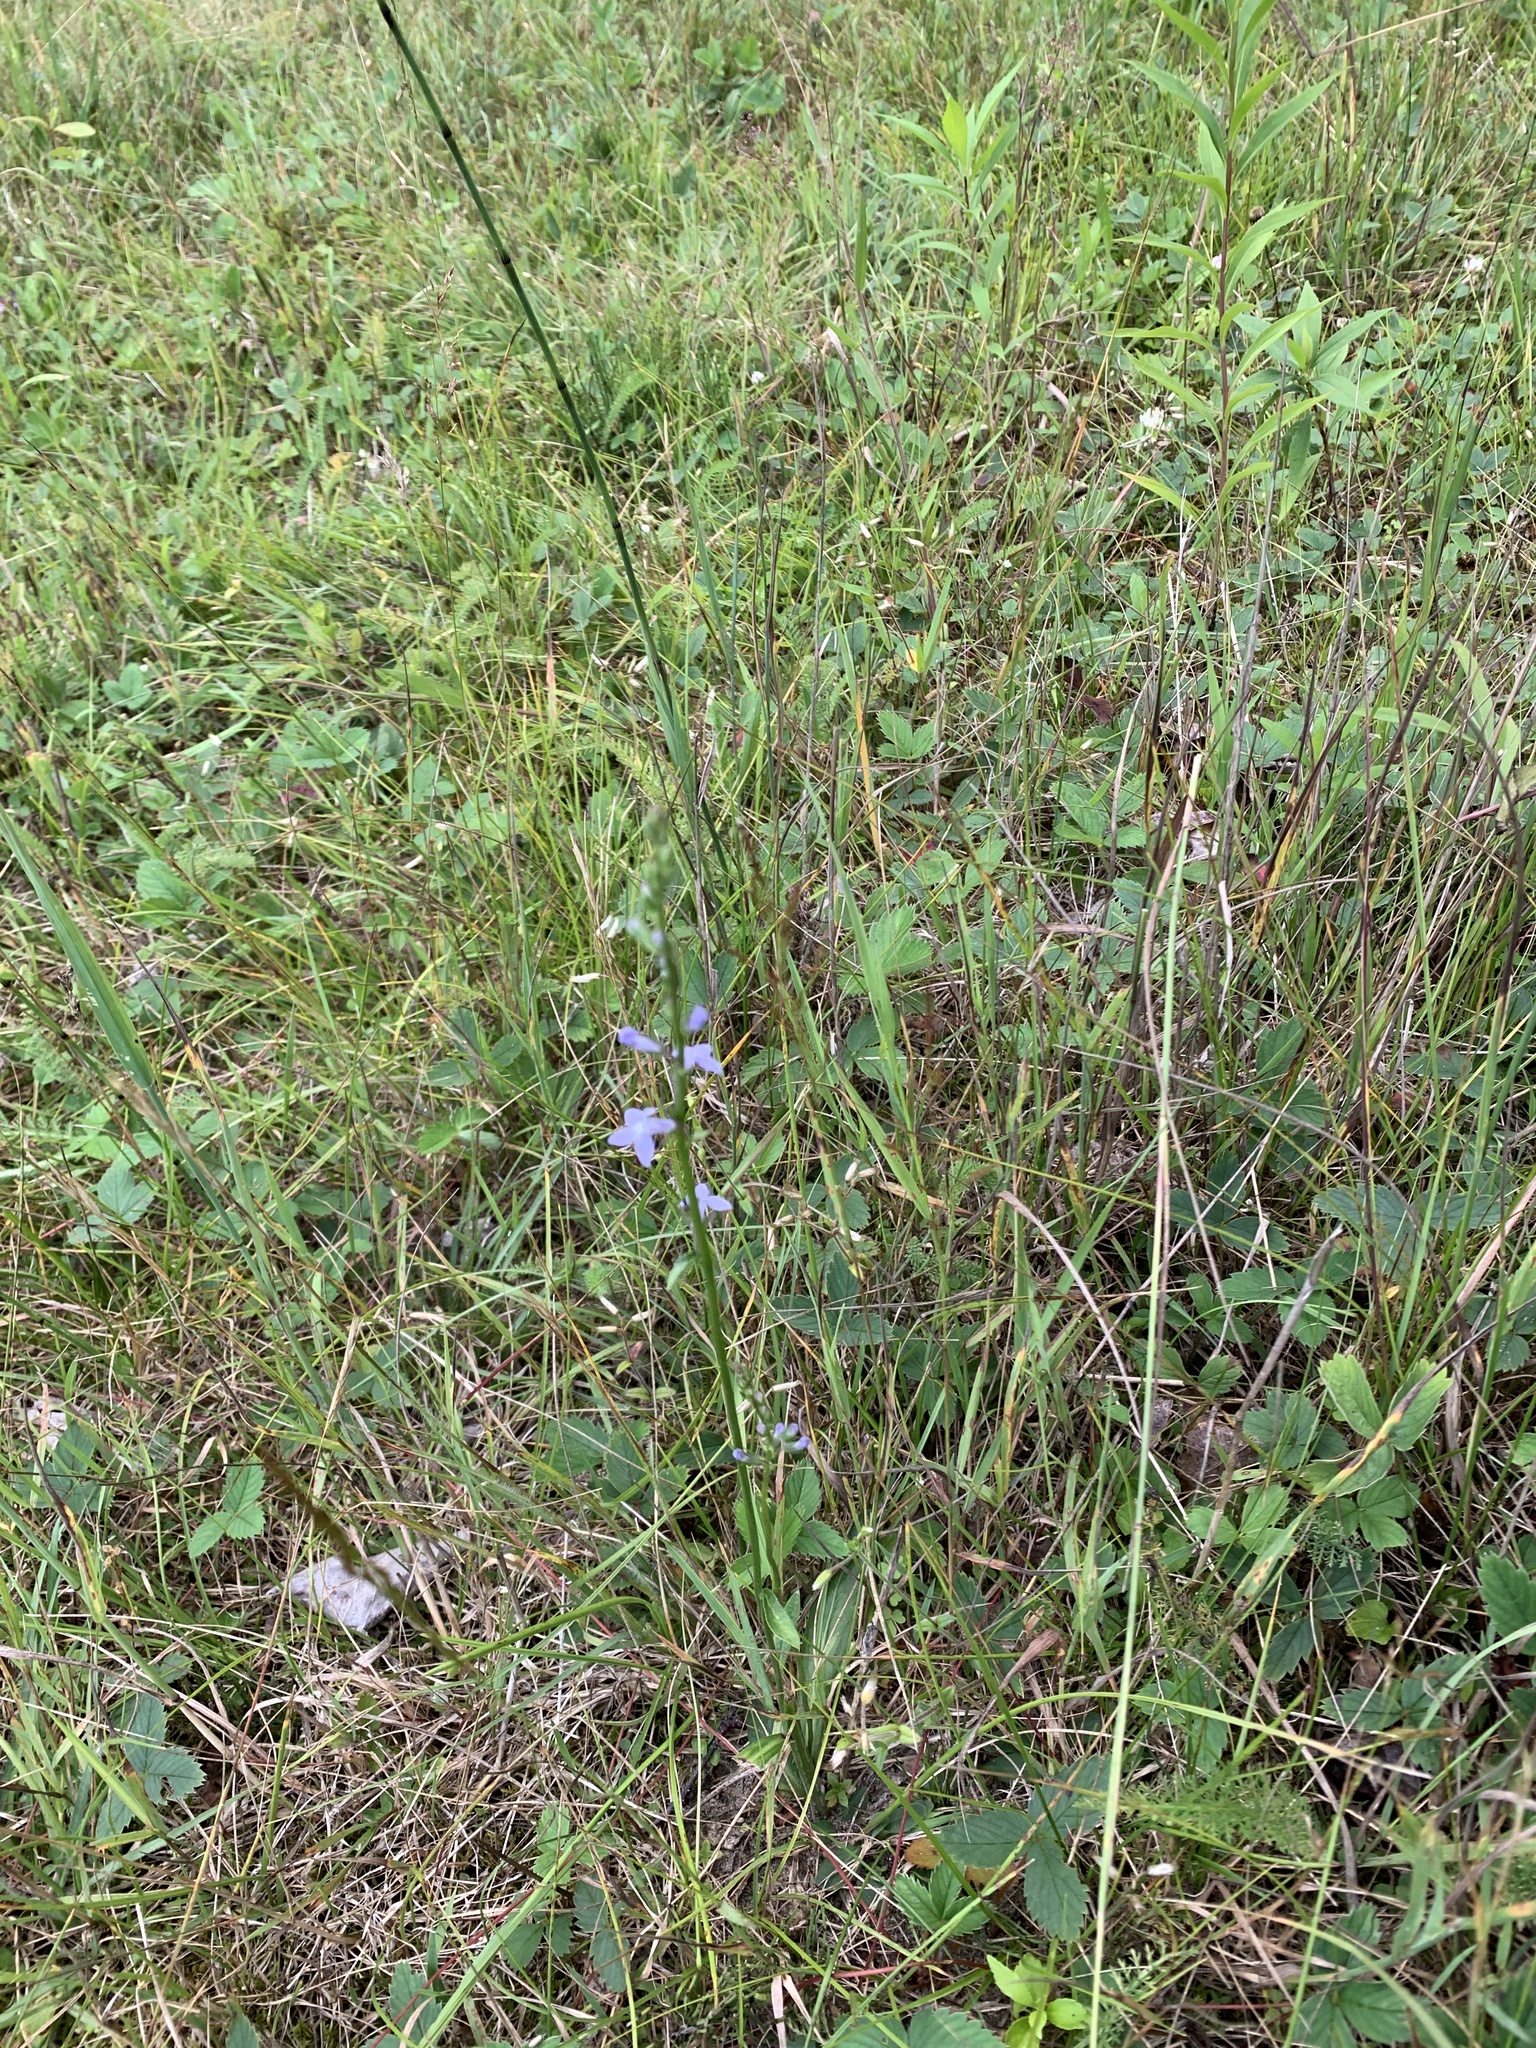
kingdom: Plantae
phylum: Tracheophyta
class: Magnoliopsida
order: Asterales
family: Campanulaceae
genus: Lobelia
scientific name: Lobelia spicata
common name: Pale-spike lobelia
